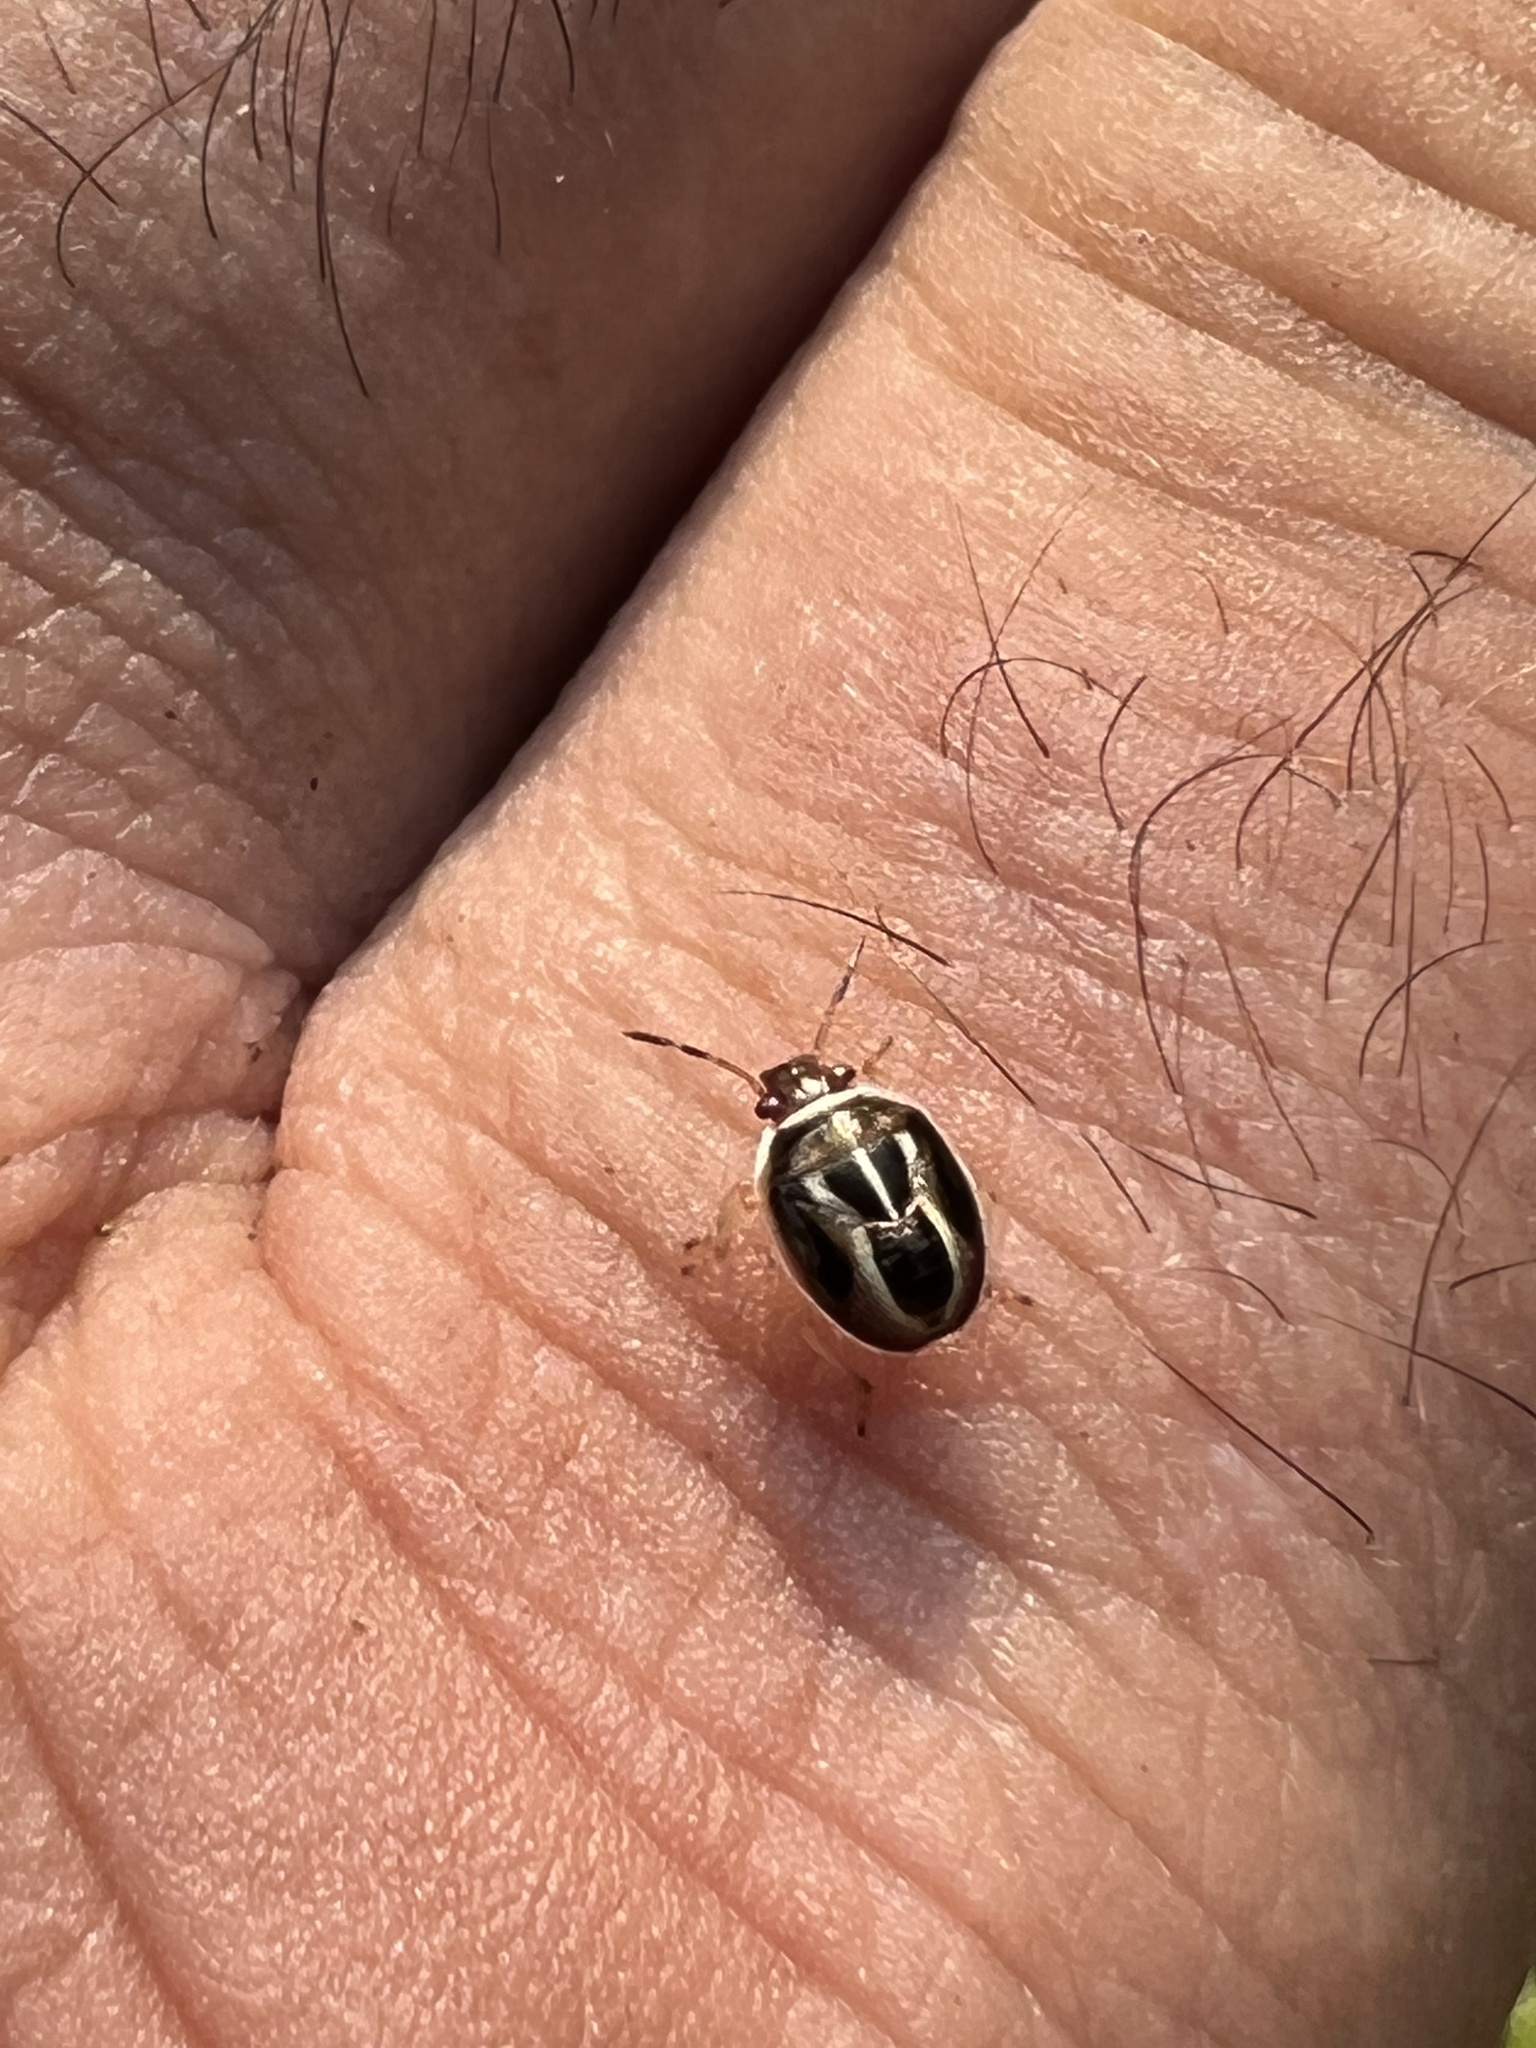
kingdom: Animalia
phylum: Arthropoda
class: Insecta
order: Hemiptera
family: Pentatomidae
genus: Mormidea
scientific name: Mormidea lugens
